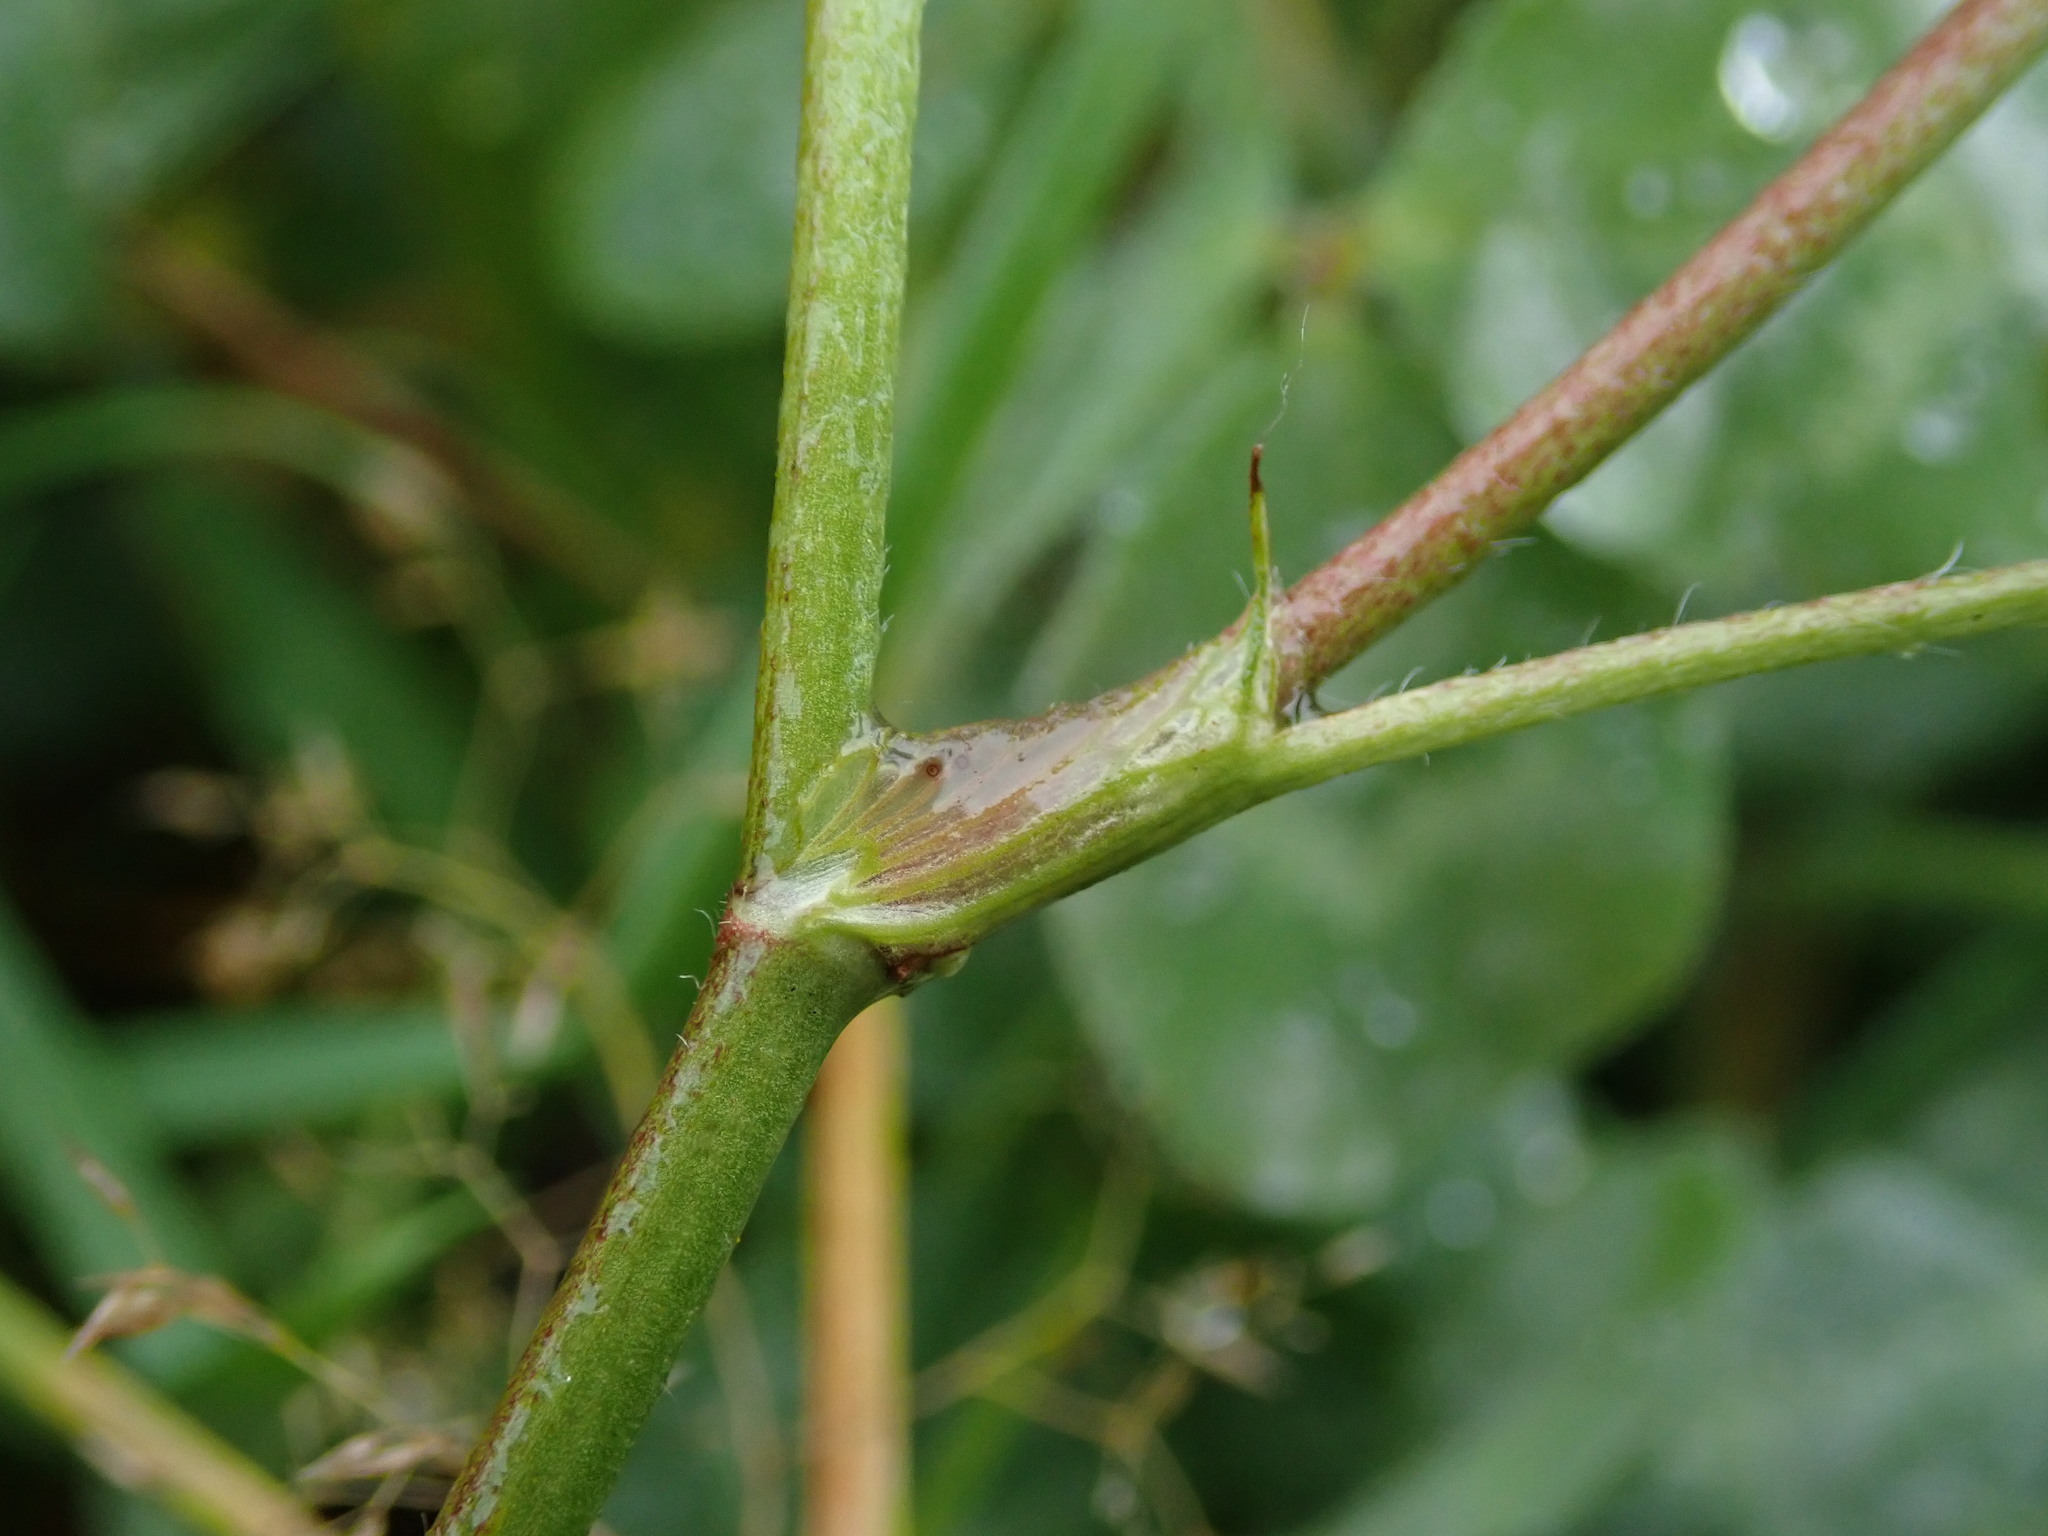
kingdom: Plantae
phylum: Tracheophyta
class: Magnoliopsida
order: Fabales
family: Fabaceae
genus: Trifolium
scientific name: Trifolium pratense
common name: Red clover
